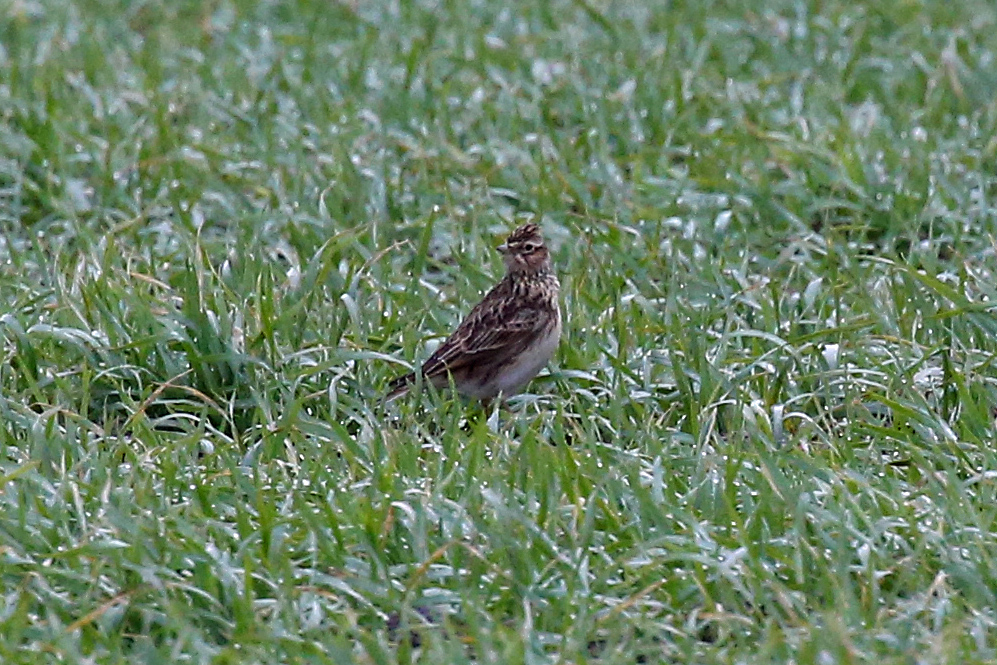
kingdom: Animalia
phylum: Chordata
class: Aves
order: Passeriformes
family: Alaudidae
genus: Alauda
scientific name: Alauda arvensis
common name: Eurasian skylark
